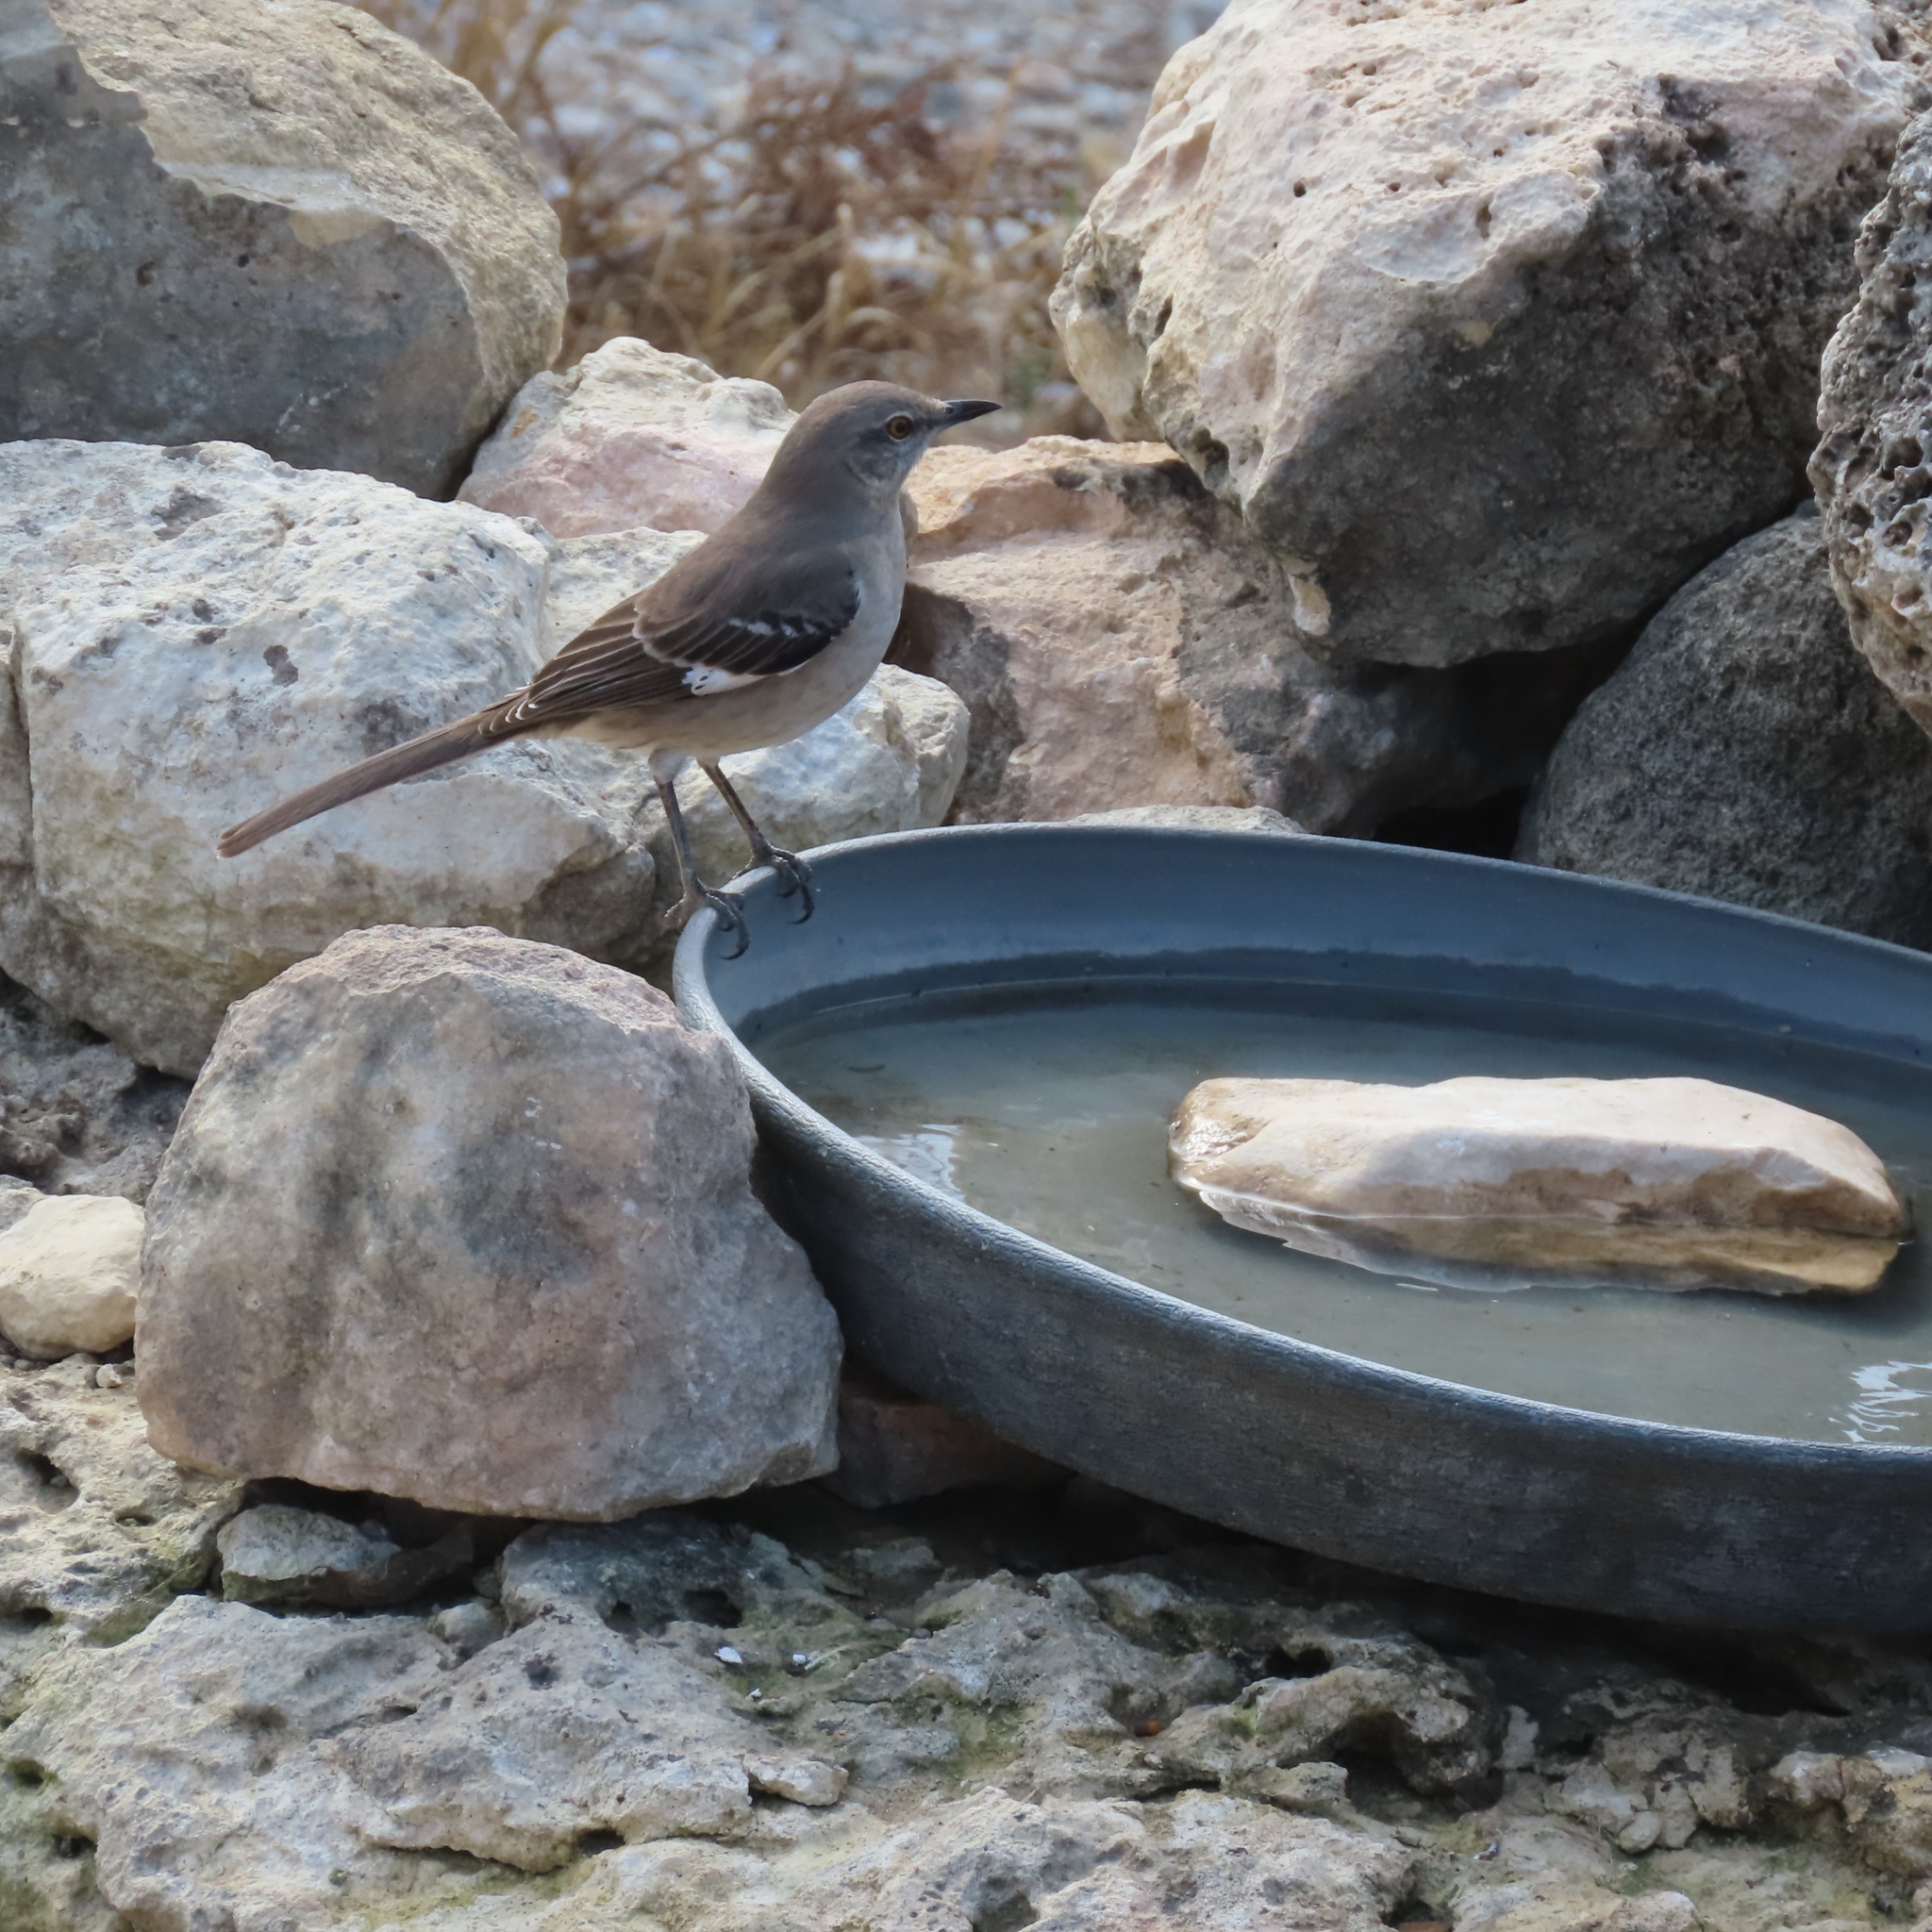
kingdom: Animalia
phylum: Chordata
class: Aves
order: Passeriformes
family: Mimidae
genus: Mimus
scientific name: Mimus polyglottos
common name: Northern mockingbird
